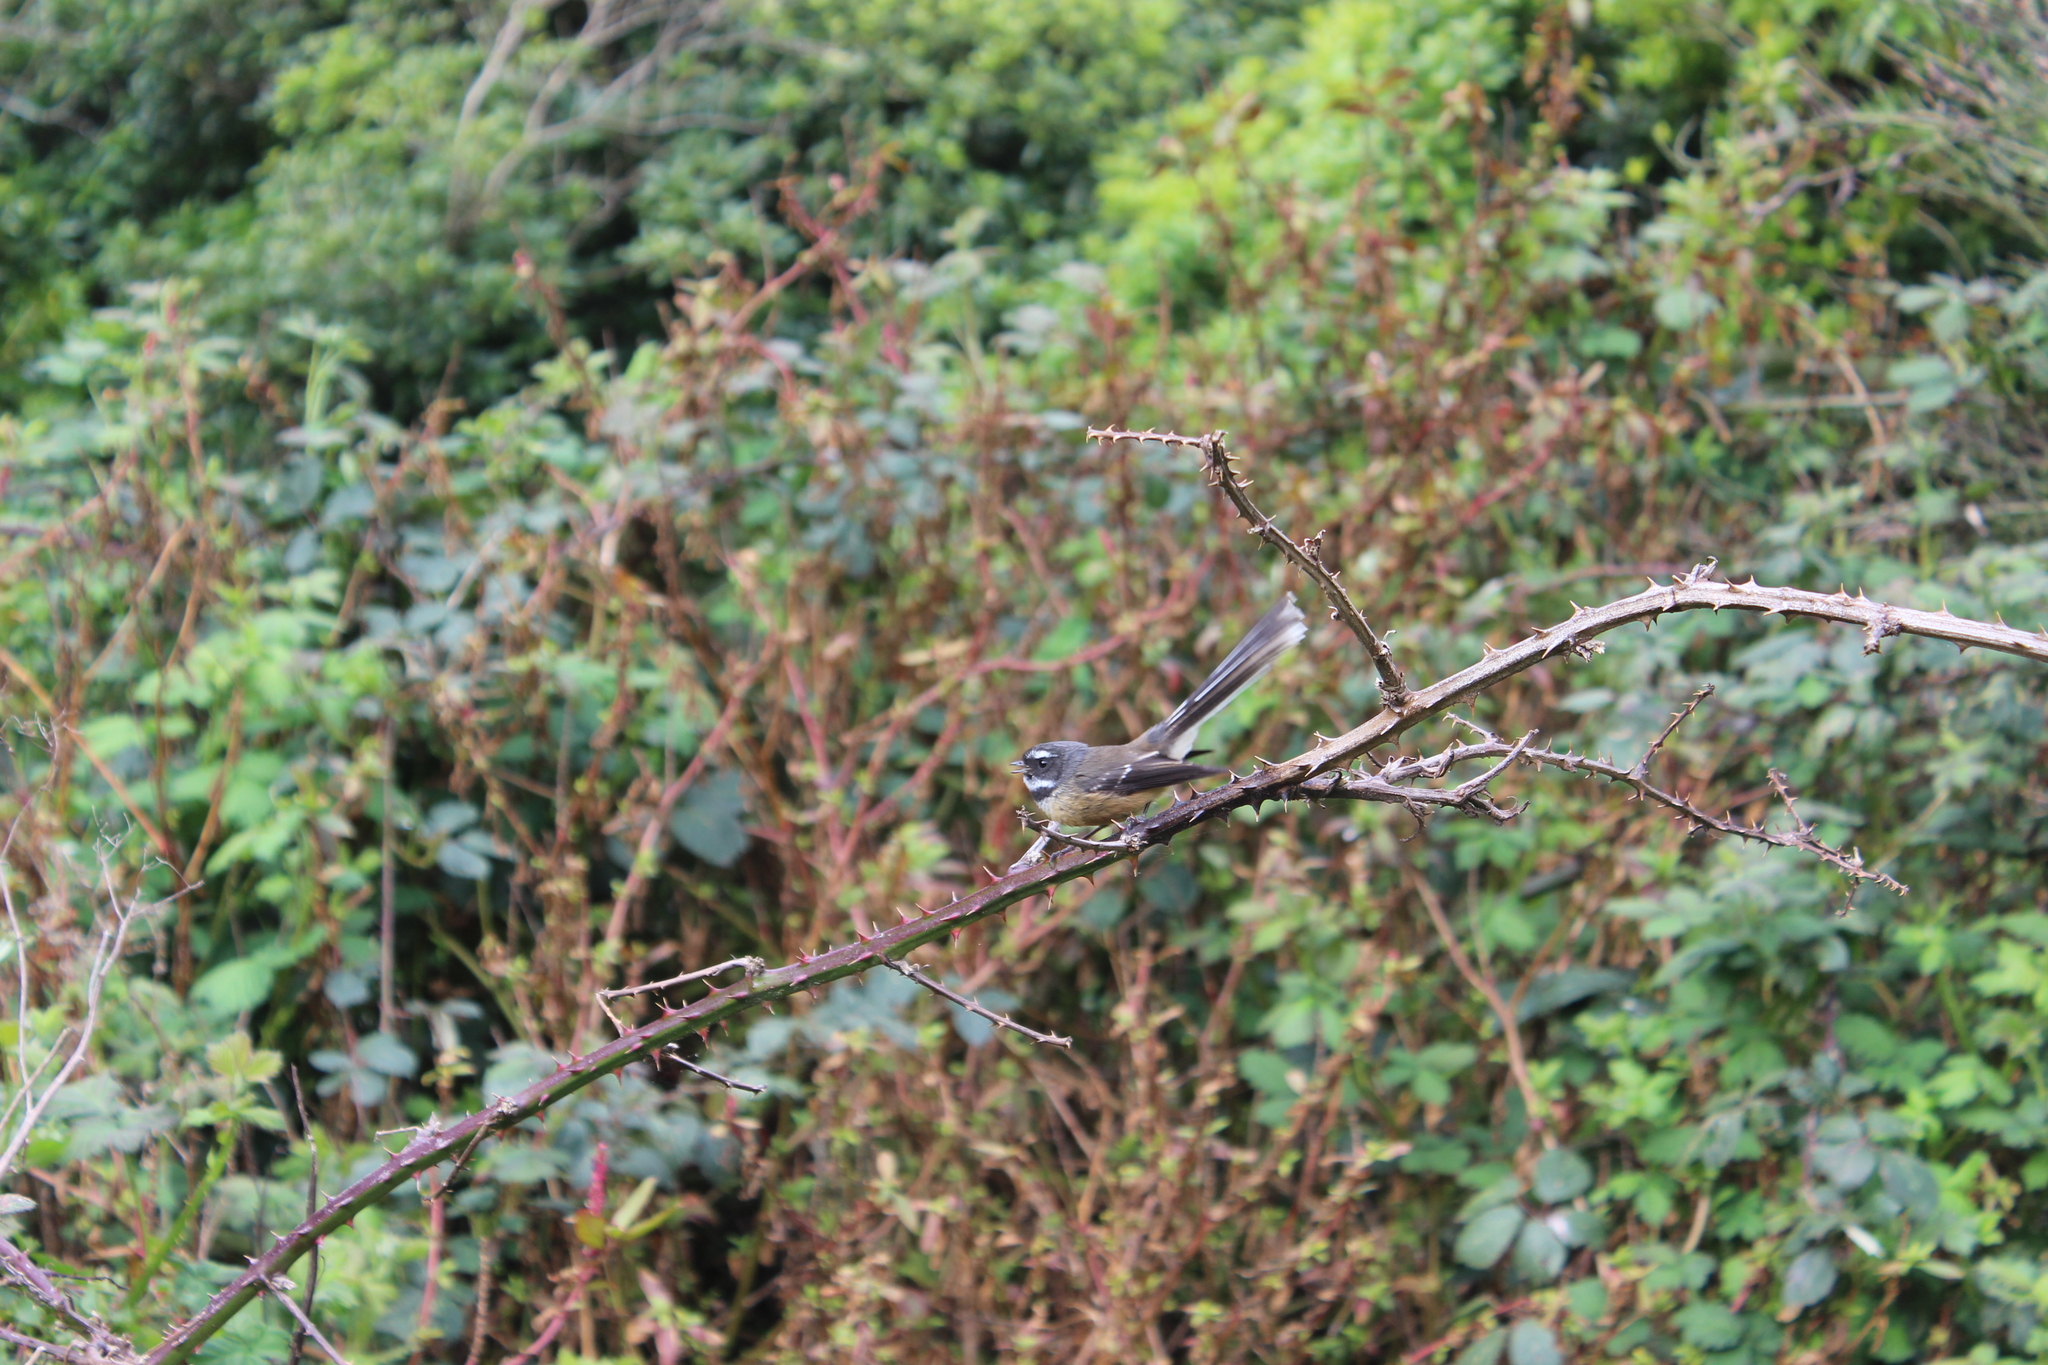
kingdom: Animalia
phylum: Chordata
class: Aves
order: Passeriformes
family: Rhipiduridae
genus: Rhipidura
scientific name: Rhipidura fuliginosa
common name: New zealand fantail
